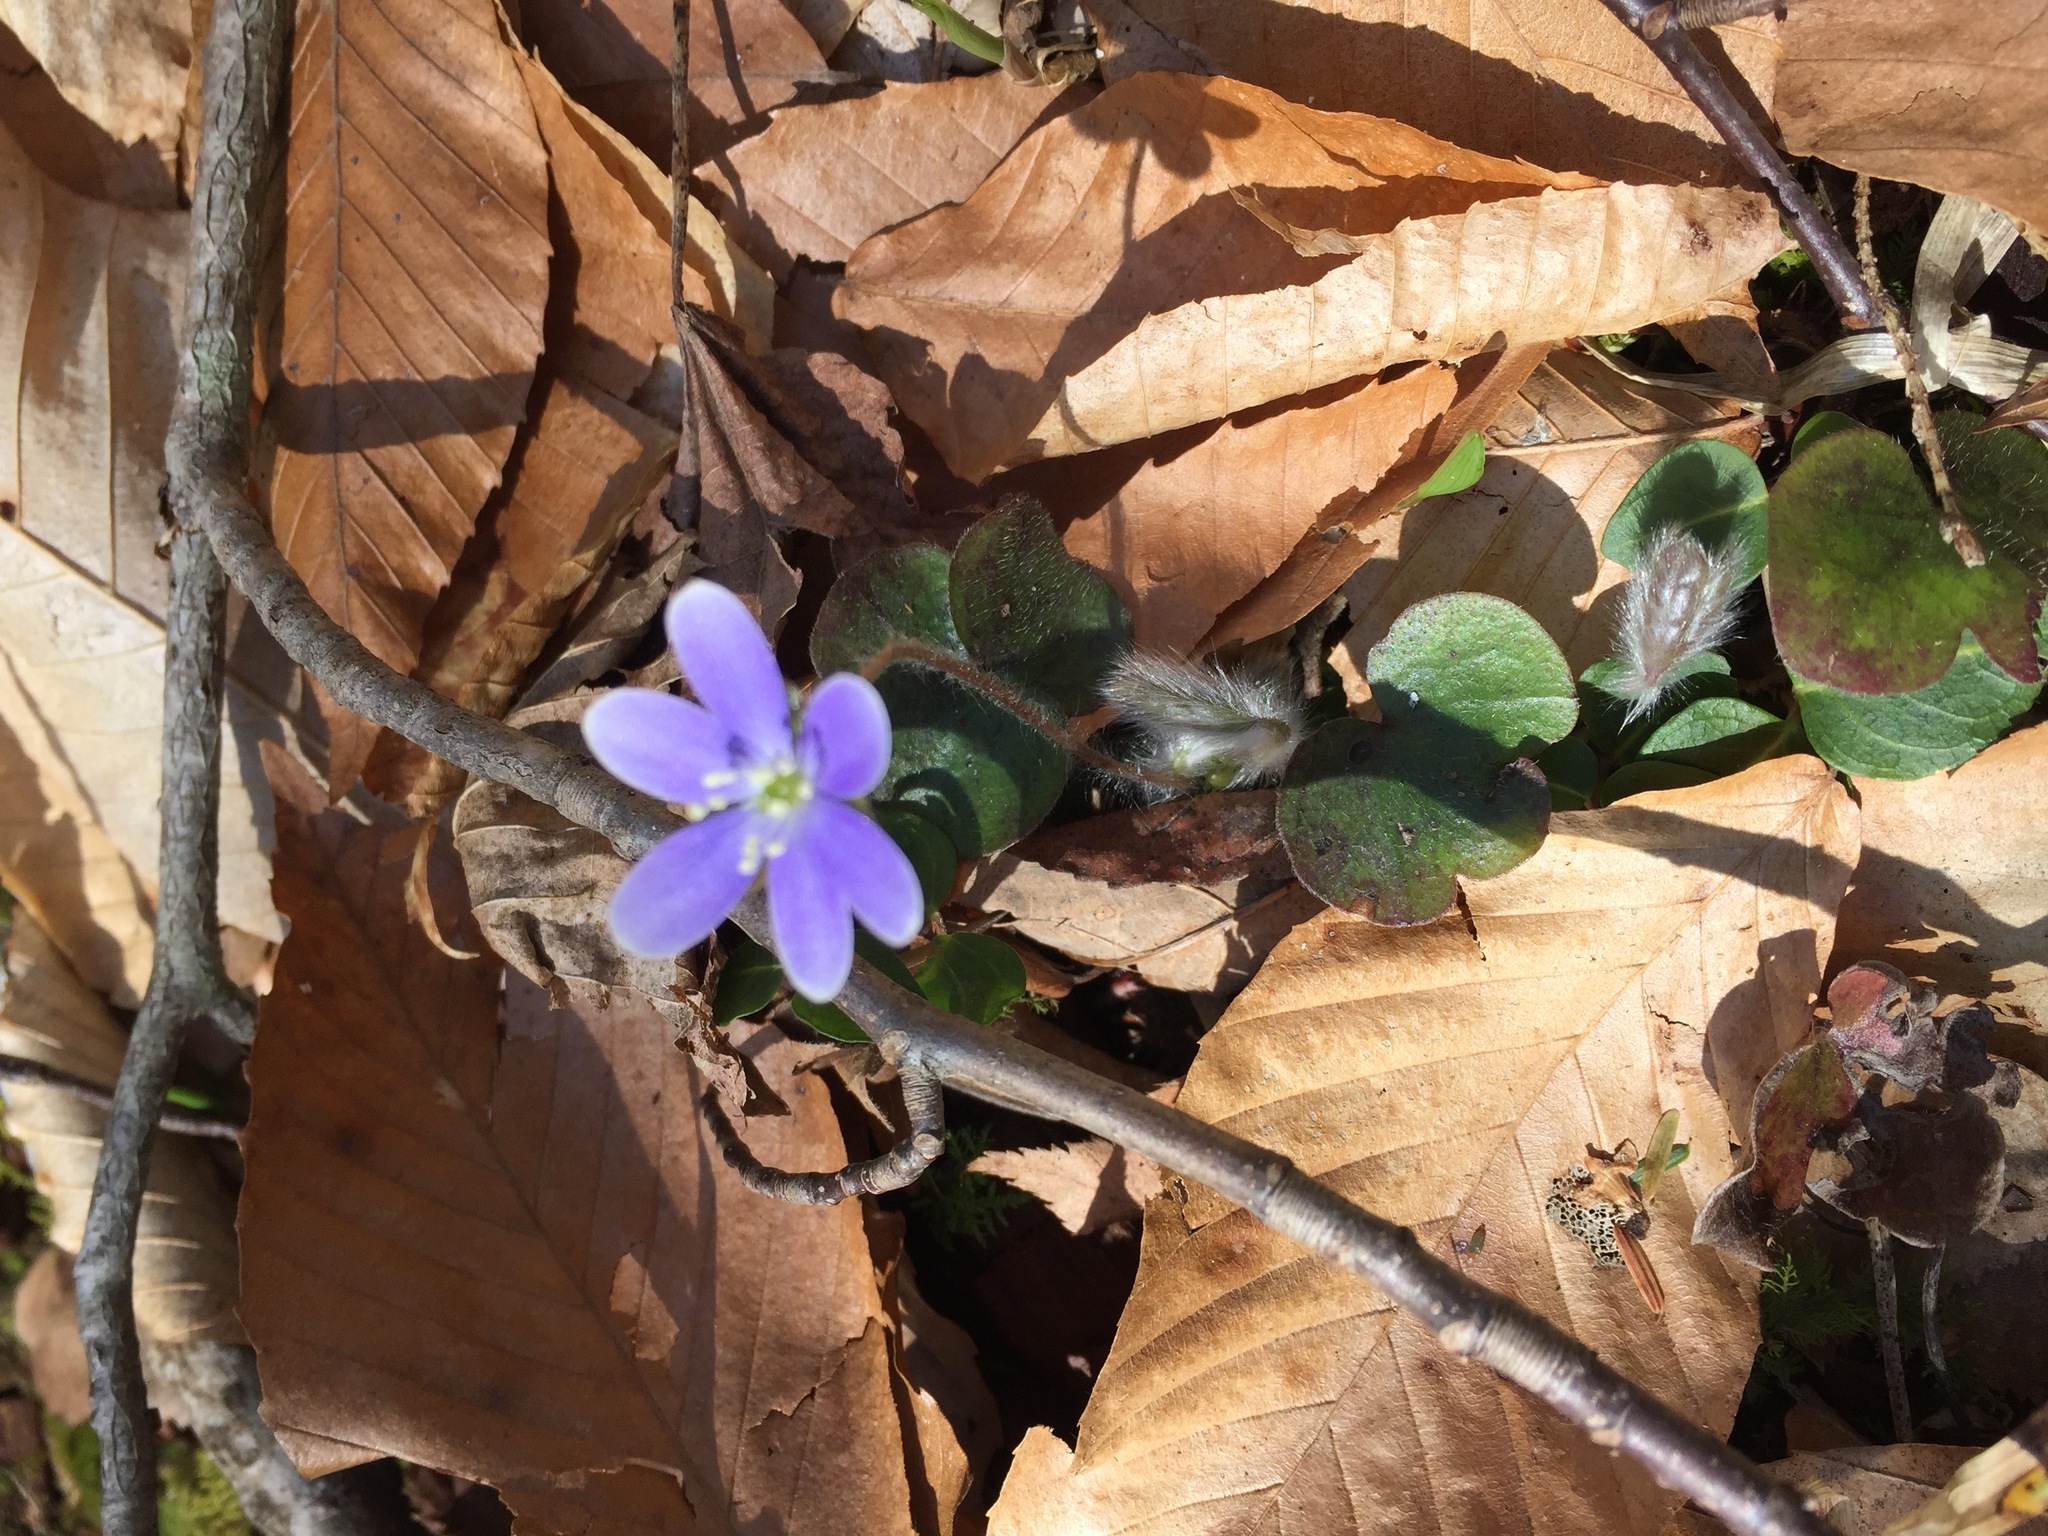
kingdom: Plantae
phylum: Tracheophyta
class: Magnoliopsida
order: Ranunculales
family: Ranunculaceae
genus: Hepatica
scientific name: Hepatica americana
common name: American hepatica
